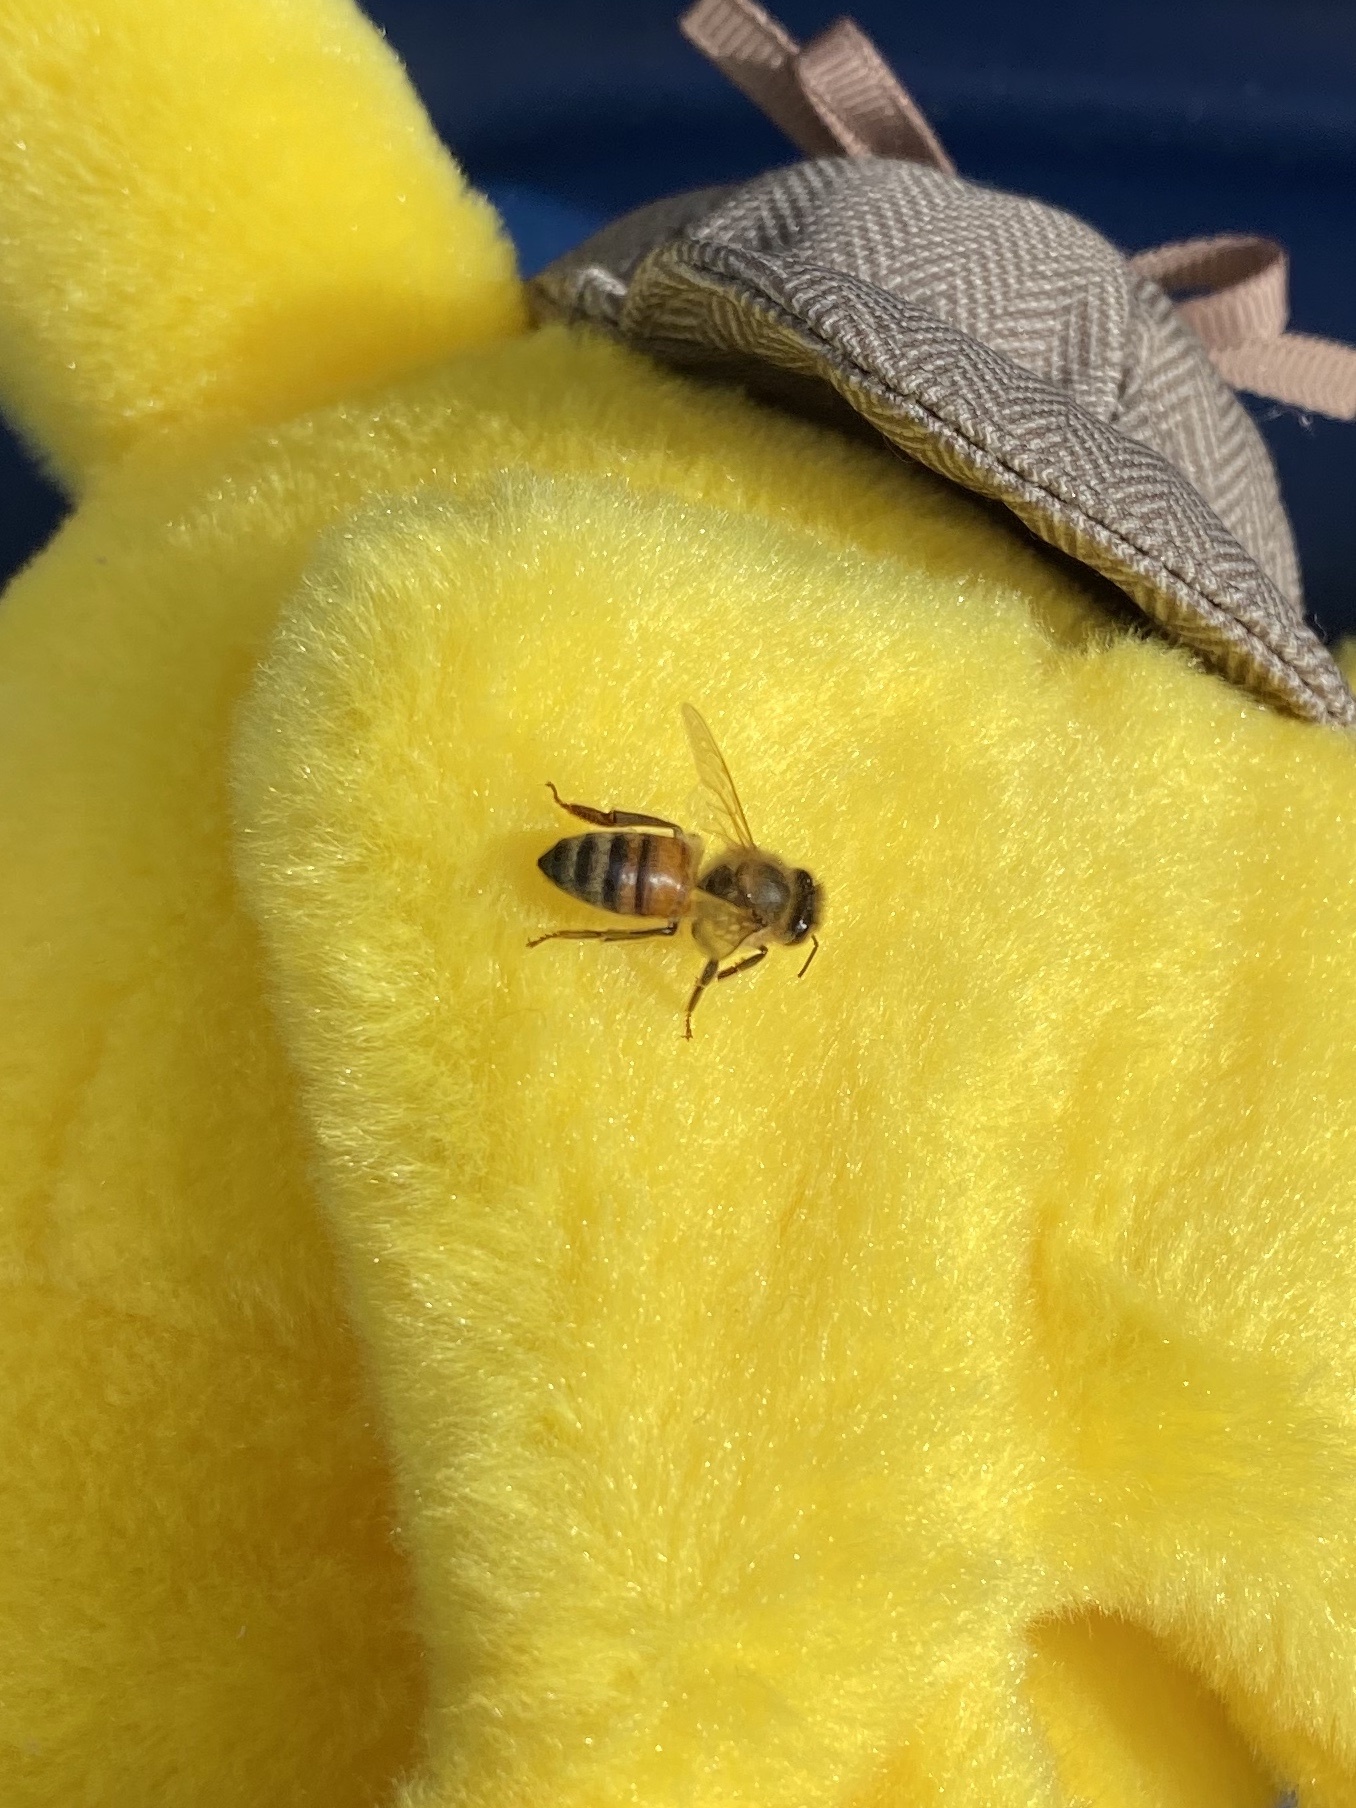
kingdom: Animalia
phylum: Arthropoda
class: Insecta
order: Hymenoptera
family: Apidae
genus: Apis
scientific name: Apis mellifera
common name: Honey bee
